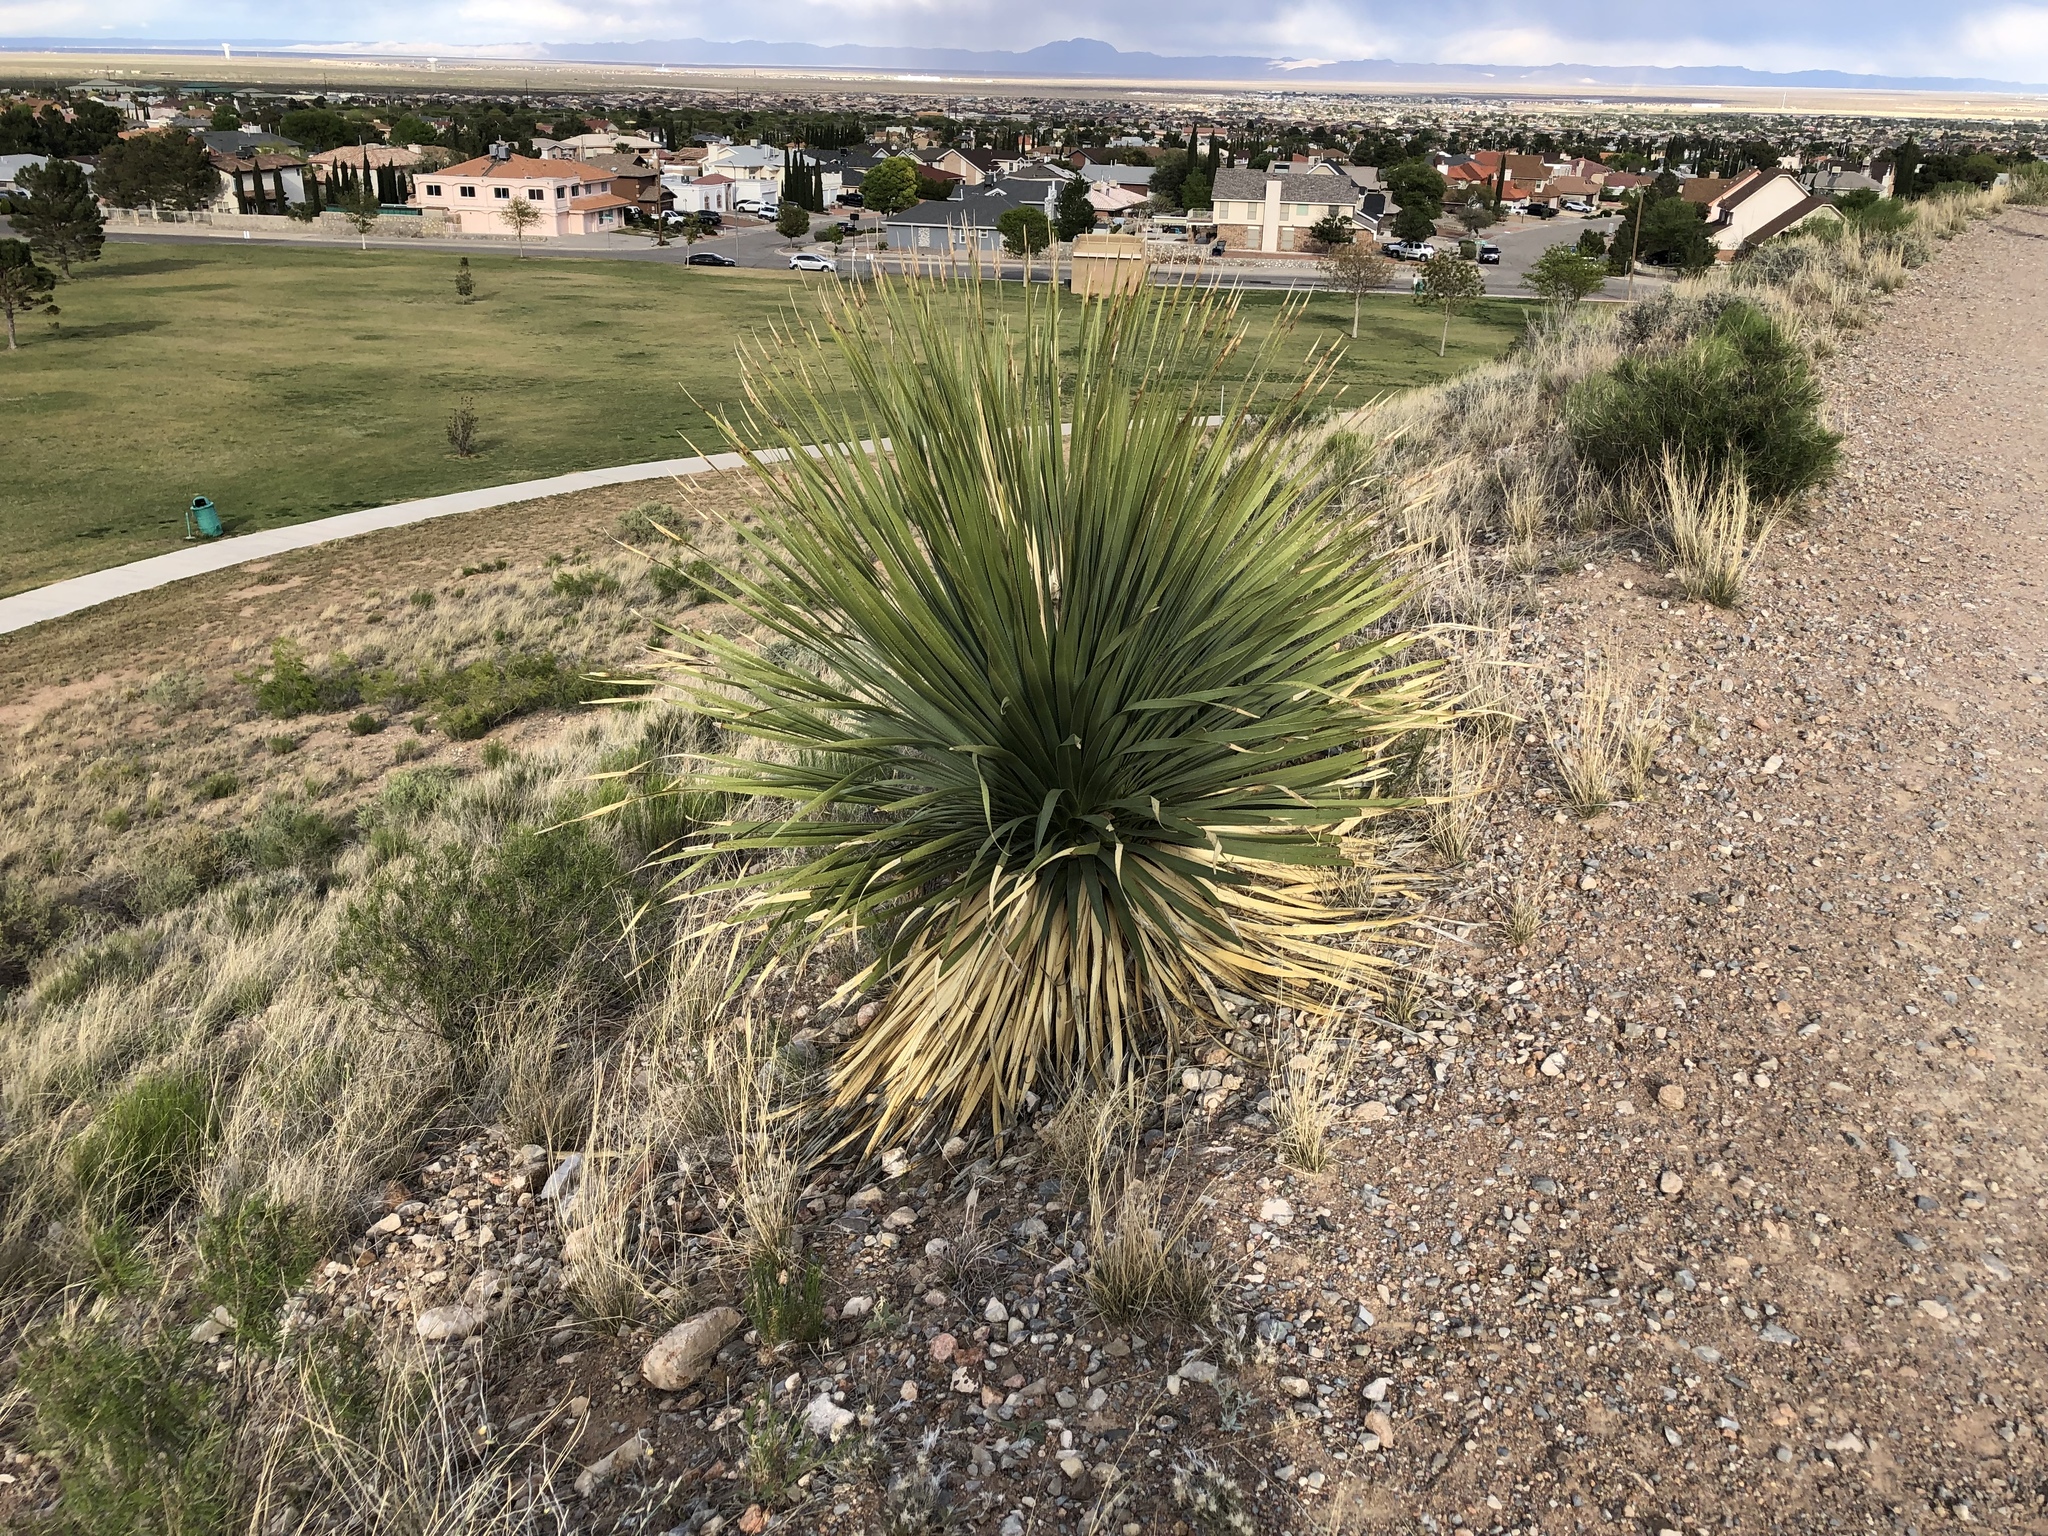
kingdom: Plantae
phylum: Tracheophyta
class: Liliopsida
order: Asparagales
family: Asparagaceae
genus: Dasylirion
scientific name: Dasylirion wheeleri
